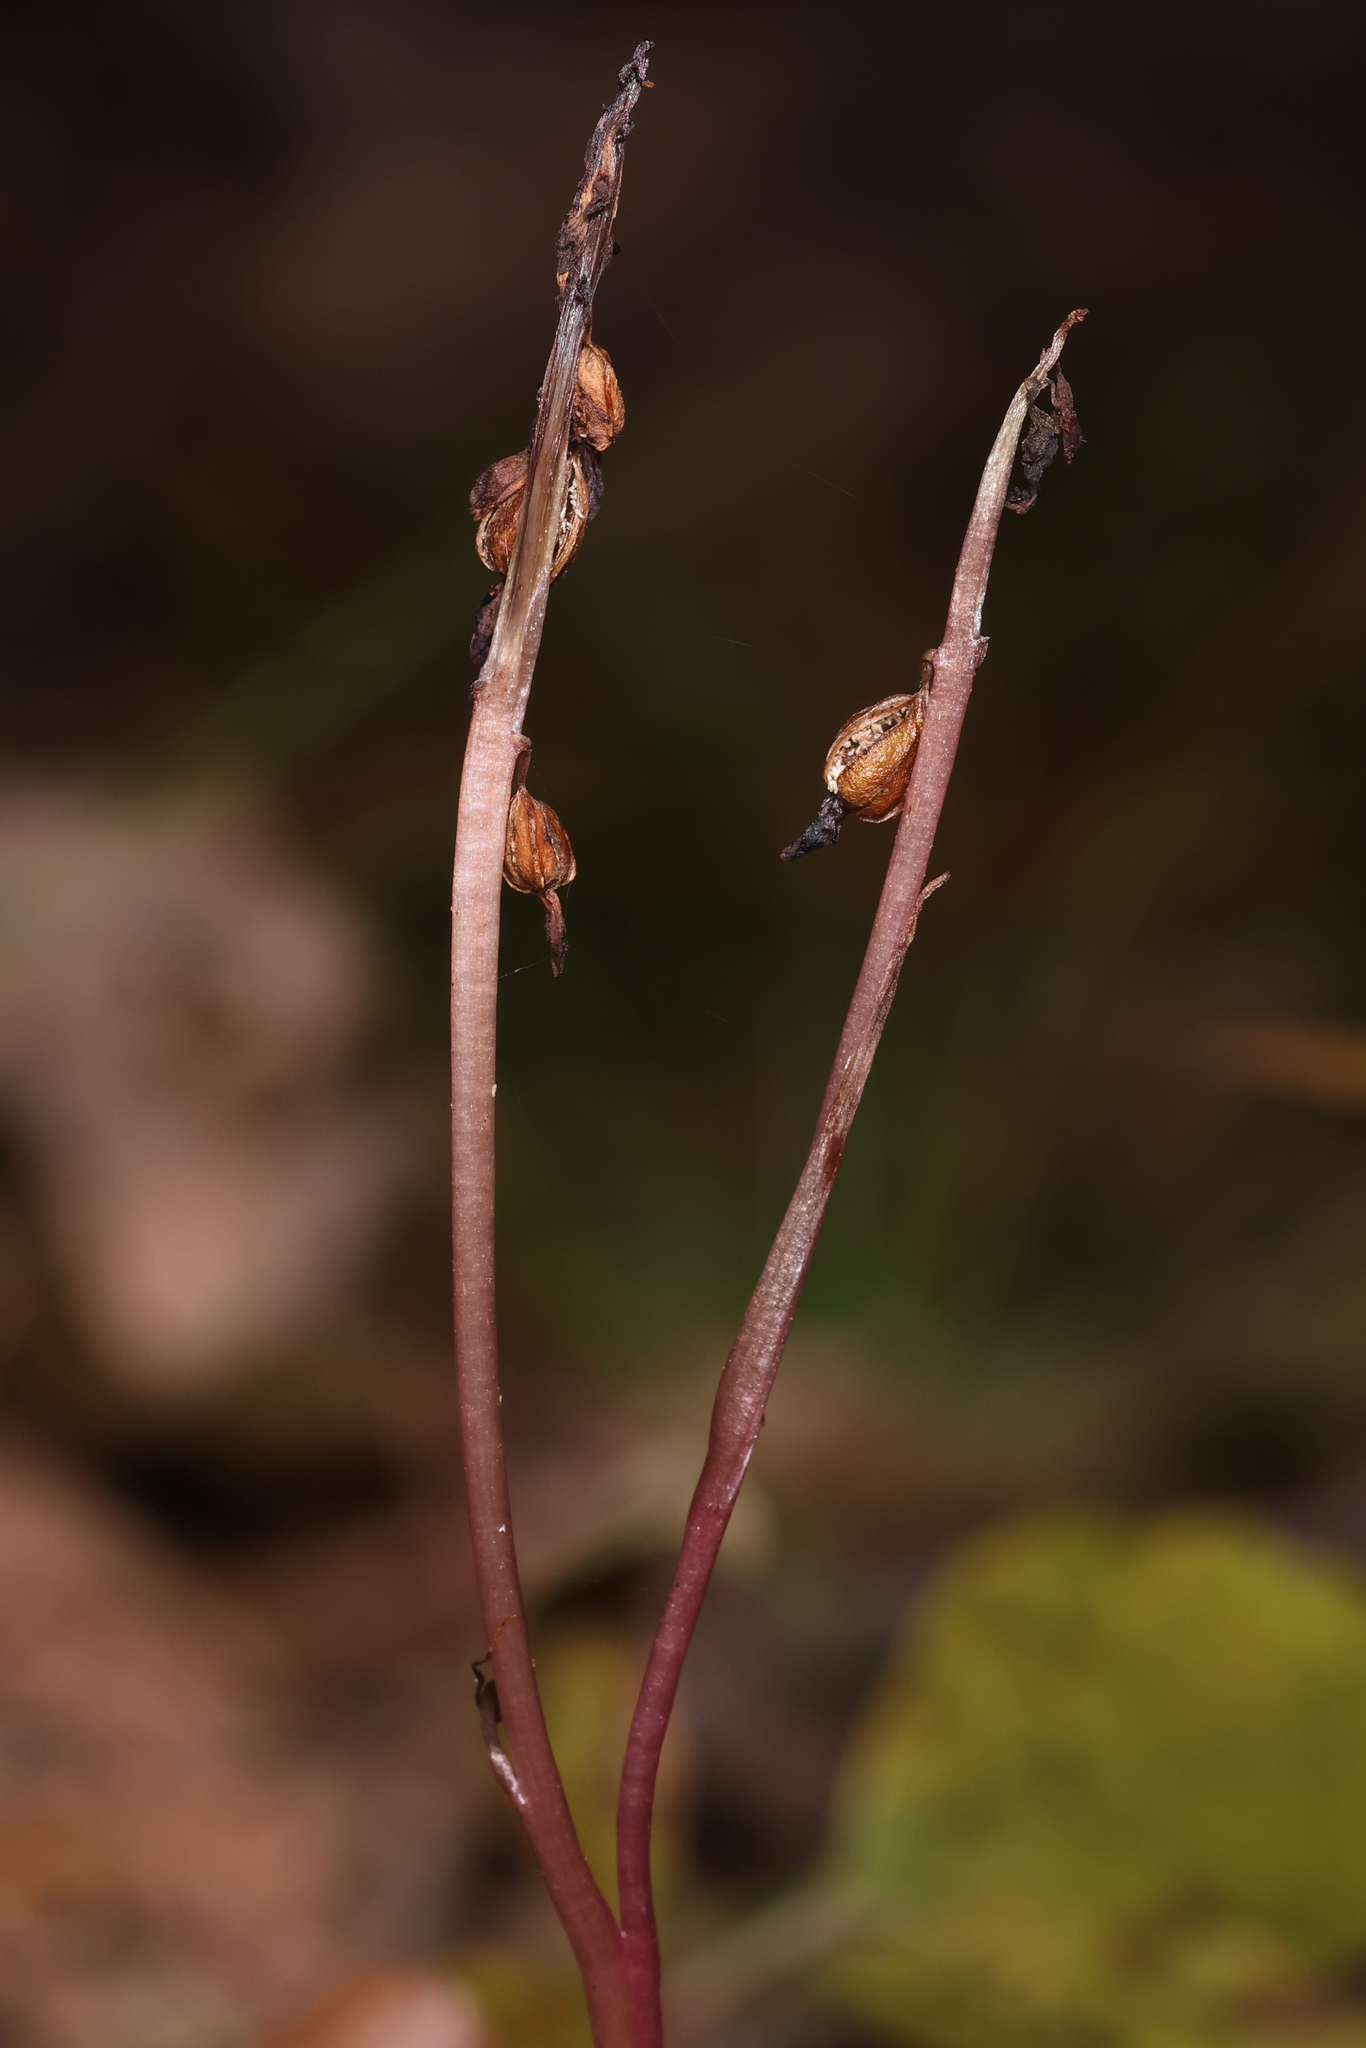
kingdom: Plantae
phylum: Tracheophyta
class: Liliopsida
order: Asparagales
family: Orchidaceae
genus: Corallorhiza
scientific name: Corallorhiza odontorhiza
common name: Autumn coralroot
